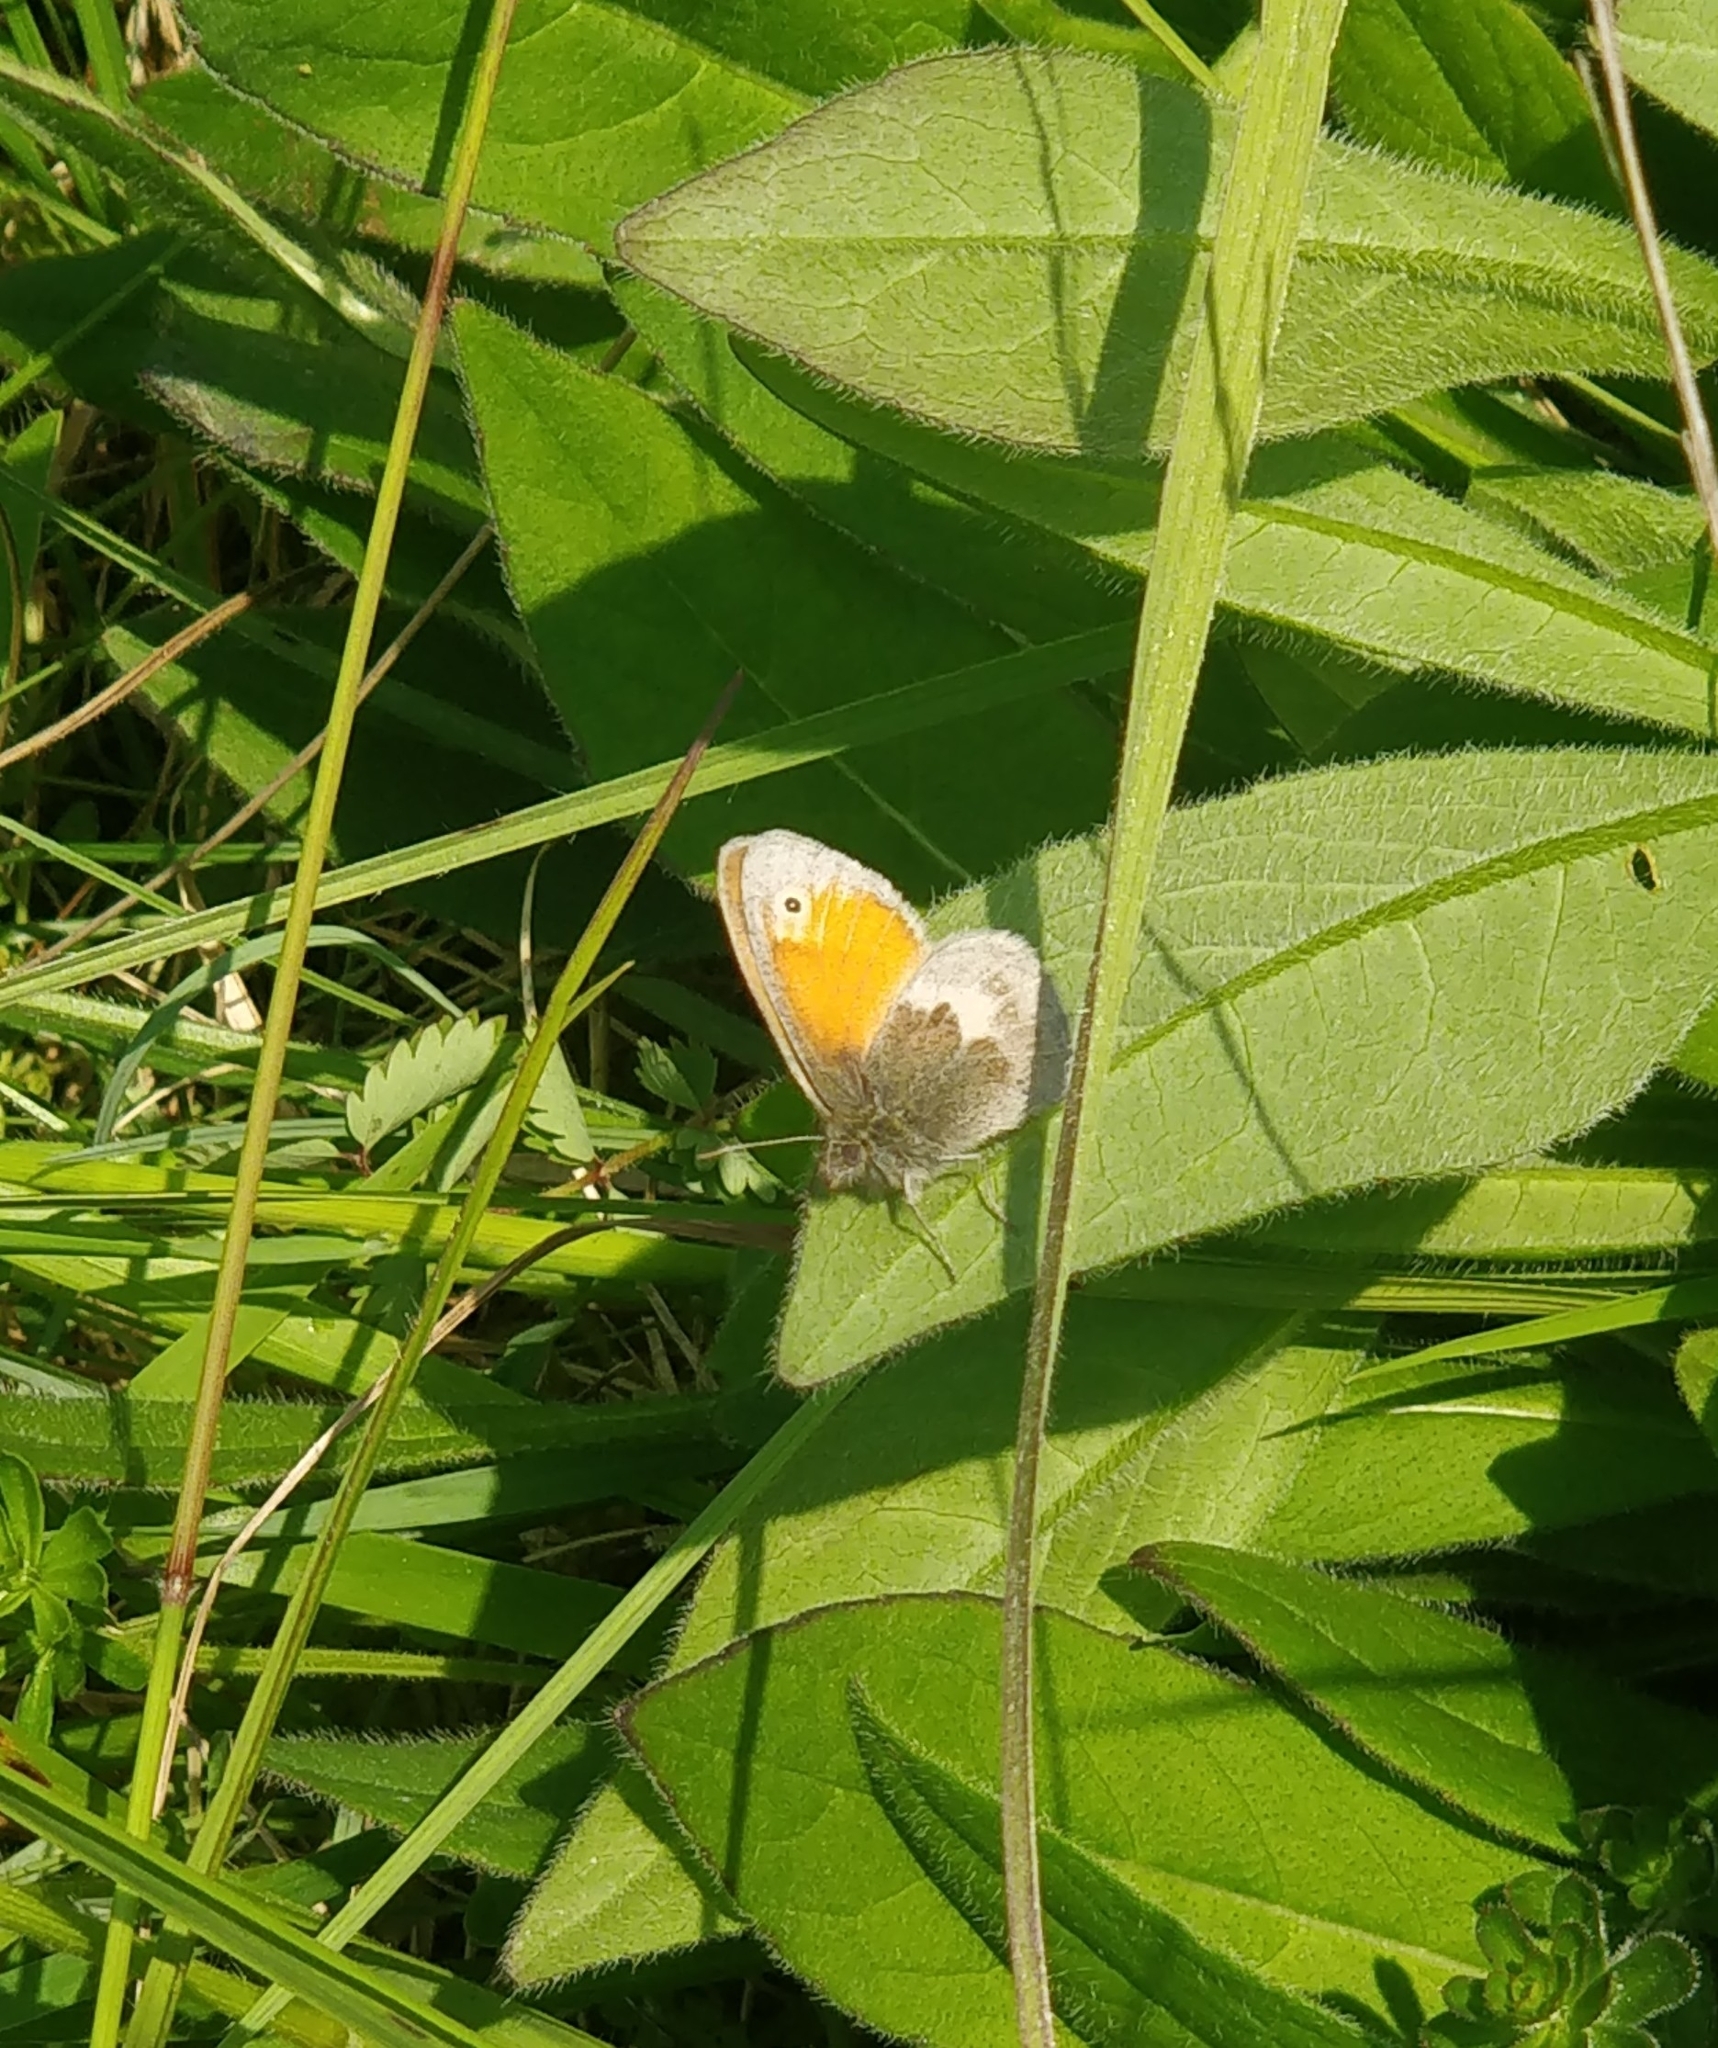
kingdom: Animalia
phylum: Arthropoda
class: Insecta
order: Lepidoptera
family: Nymphalidae
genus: Coenonympha
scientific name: Coenonympha pamphilus
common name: Small heath
